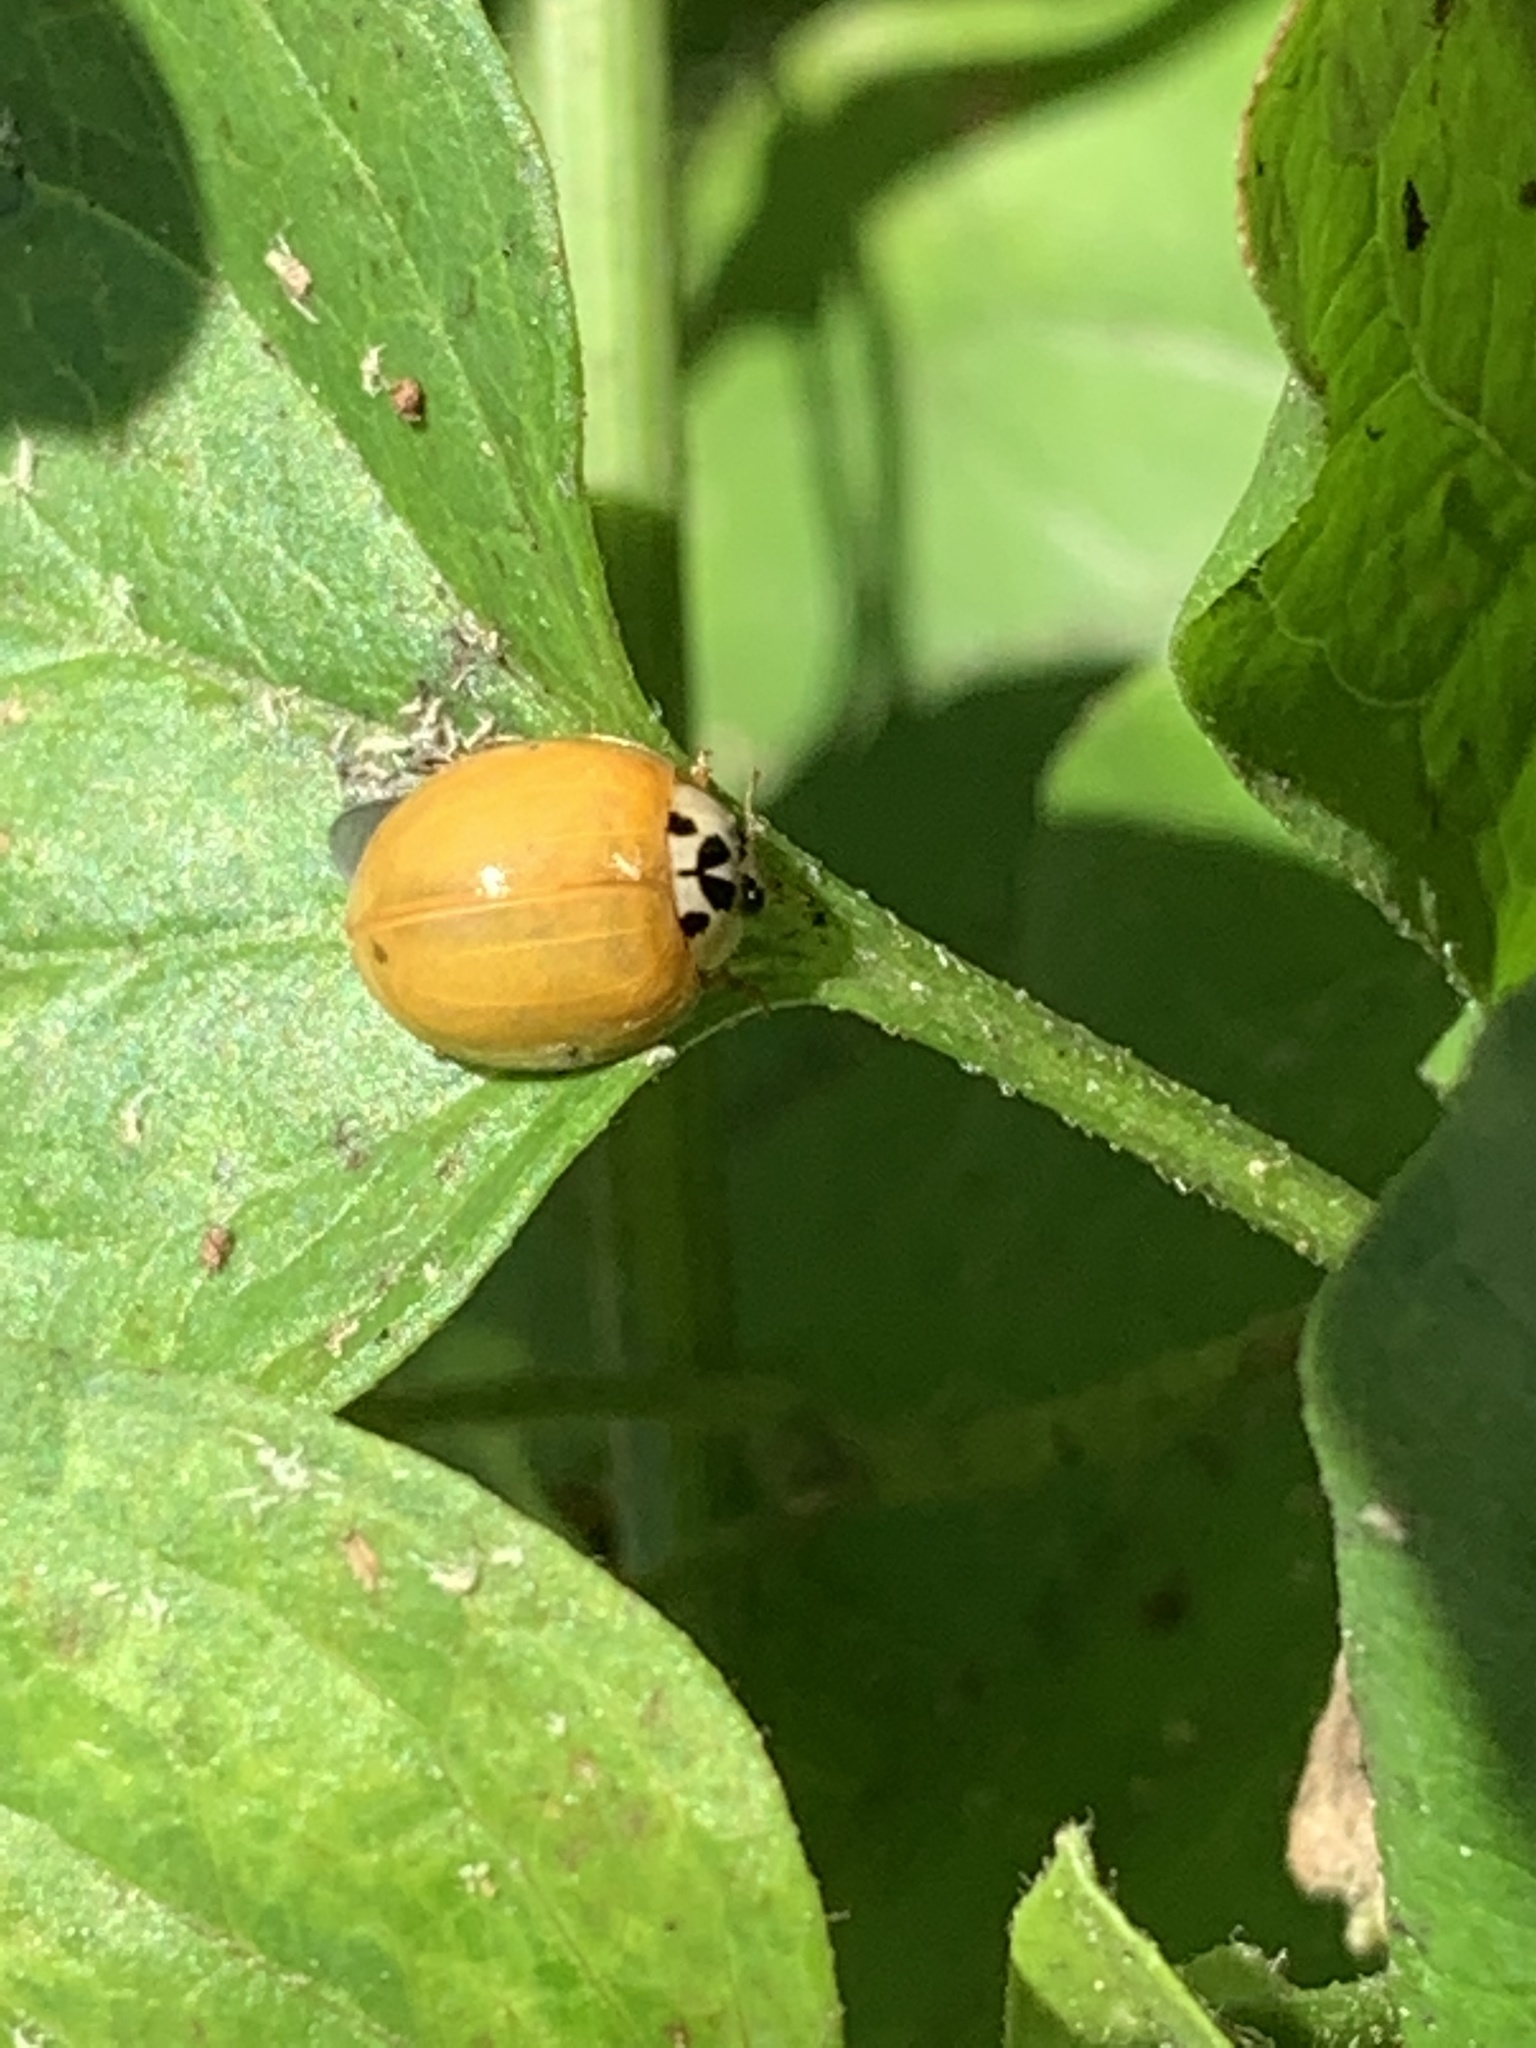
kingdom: Animalia
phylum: Arthropoda
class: Insecta
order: Coleoptera
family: Coccinellidae
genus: Harmonia
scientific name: Harmonia axyridis
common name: Harlequin ladybird
